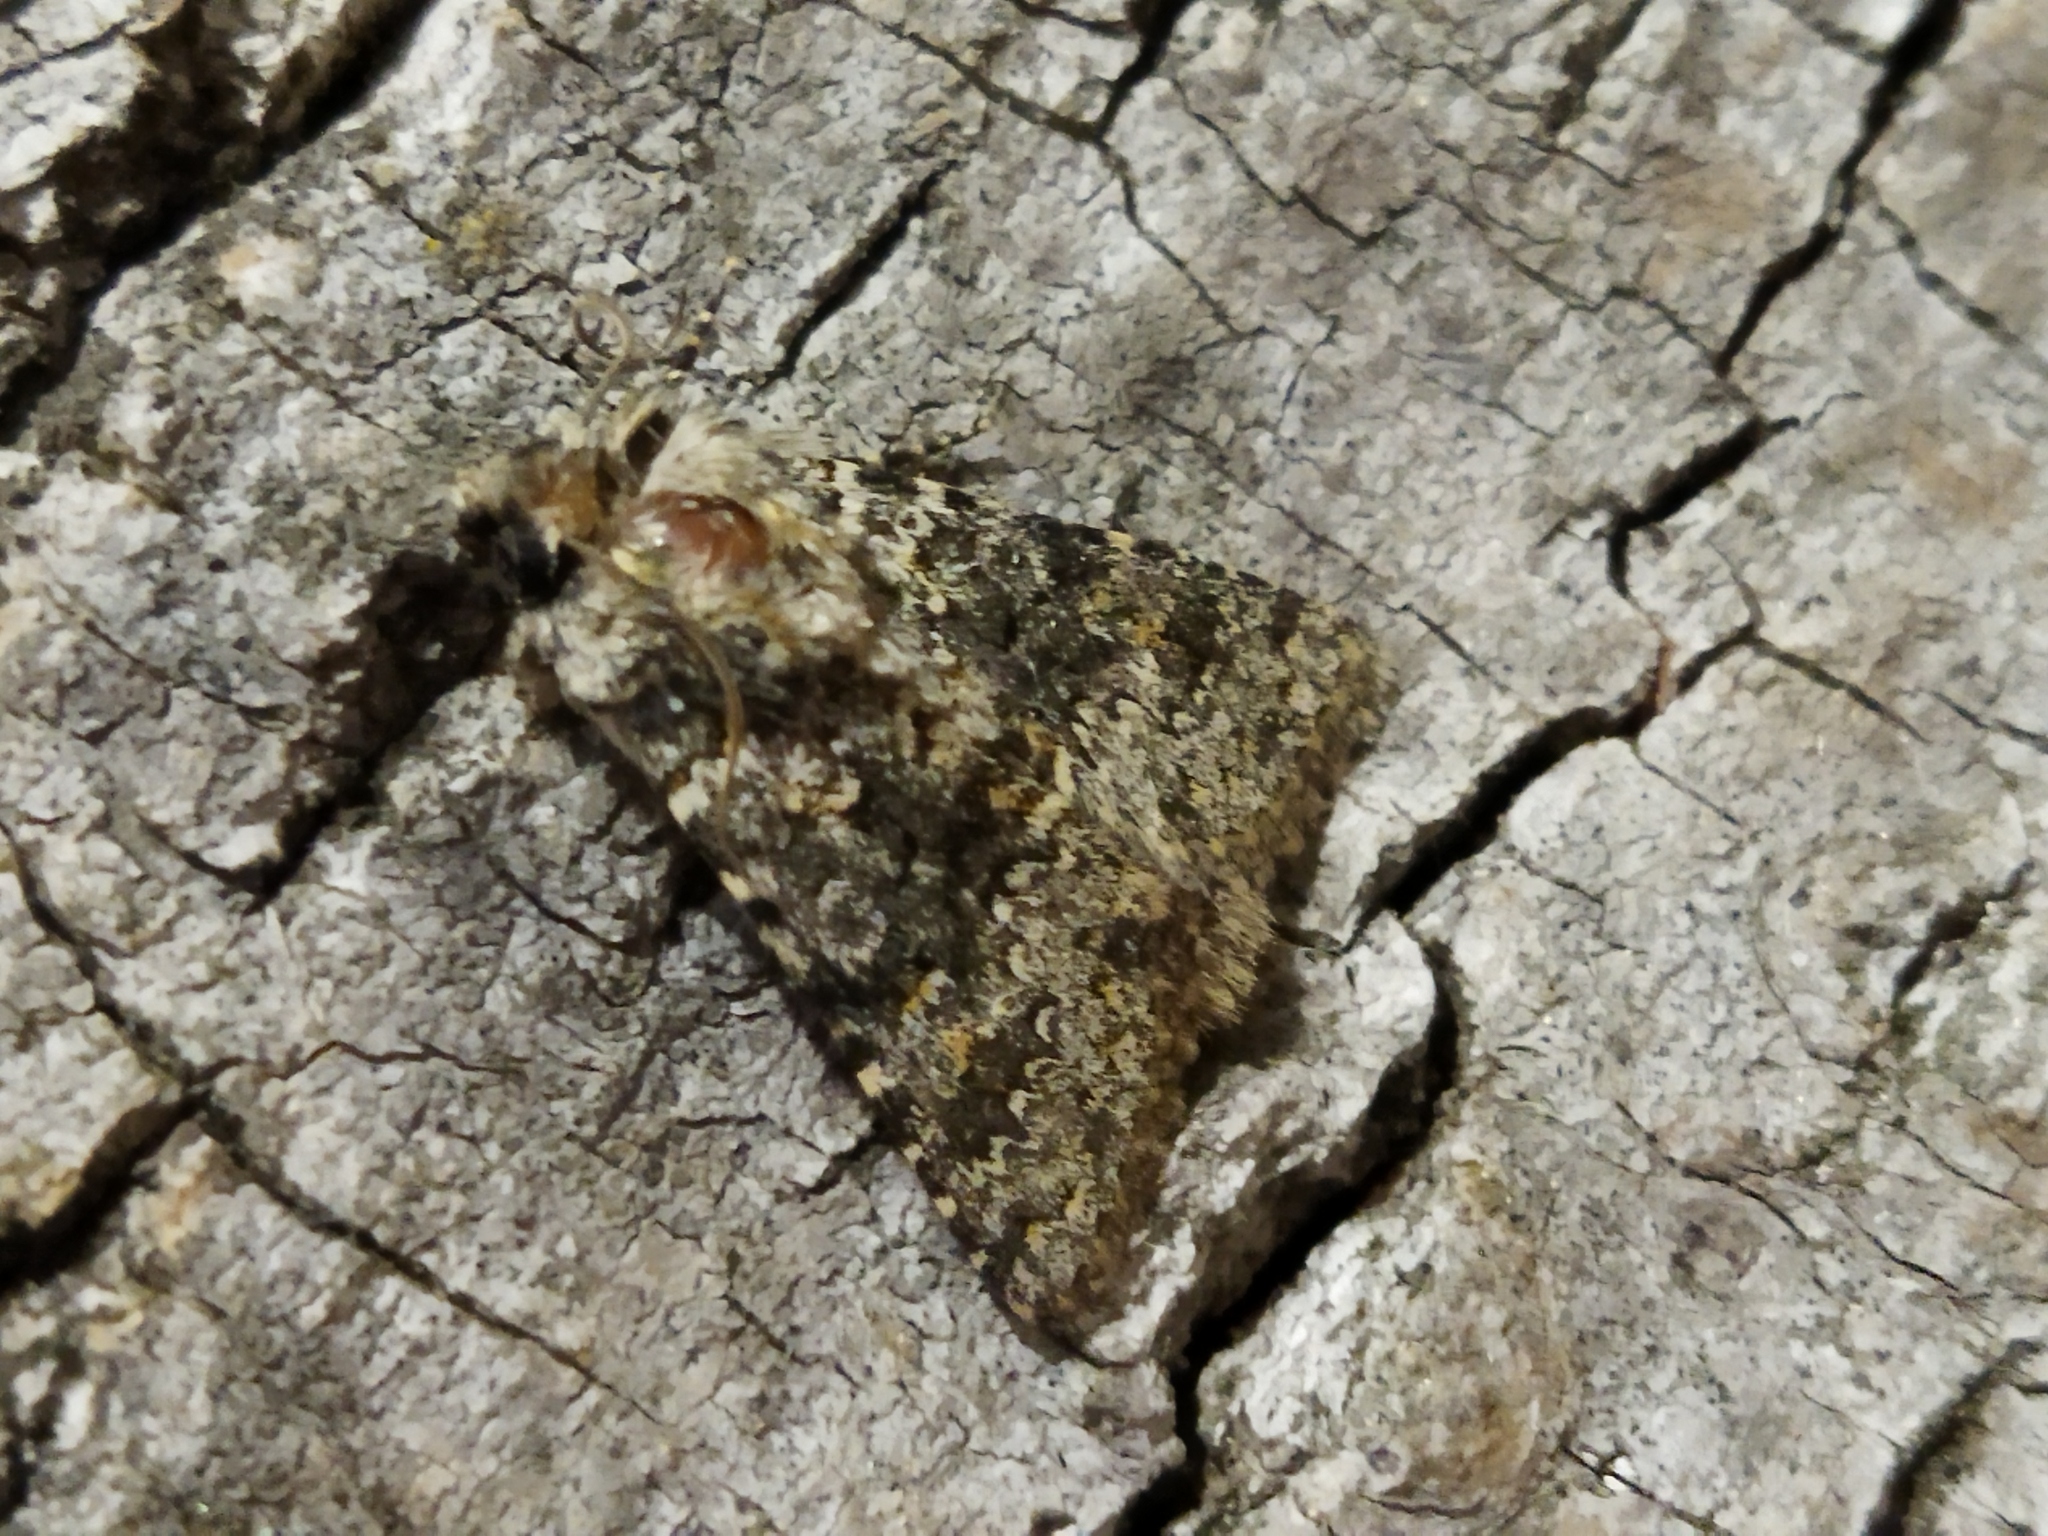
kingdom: Animalia
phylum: Arthropoda
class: Insecta
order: Lepidoptera
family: Noctuidae
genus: Hecatera
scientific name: Hecatera dysodea
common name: Small ranunculus
